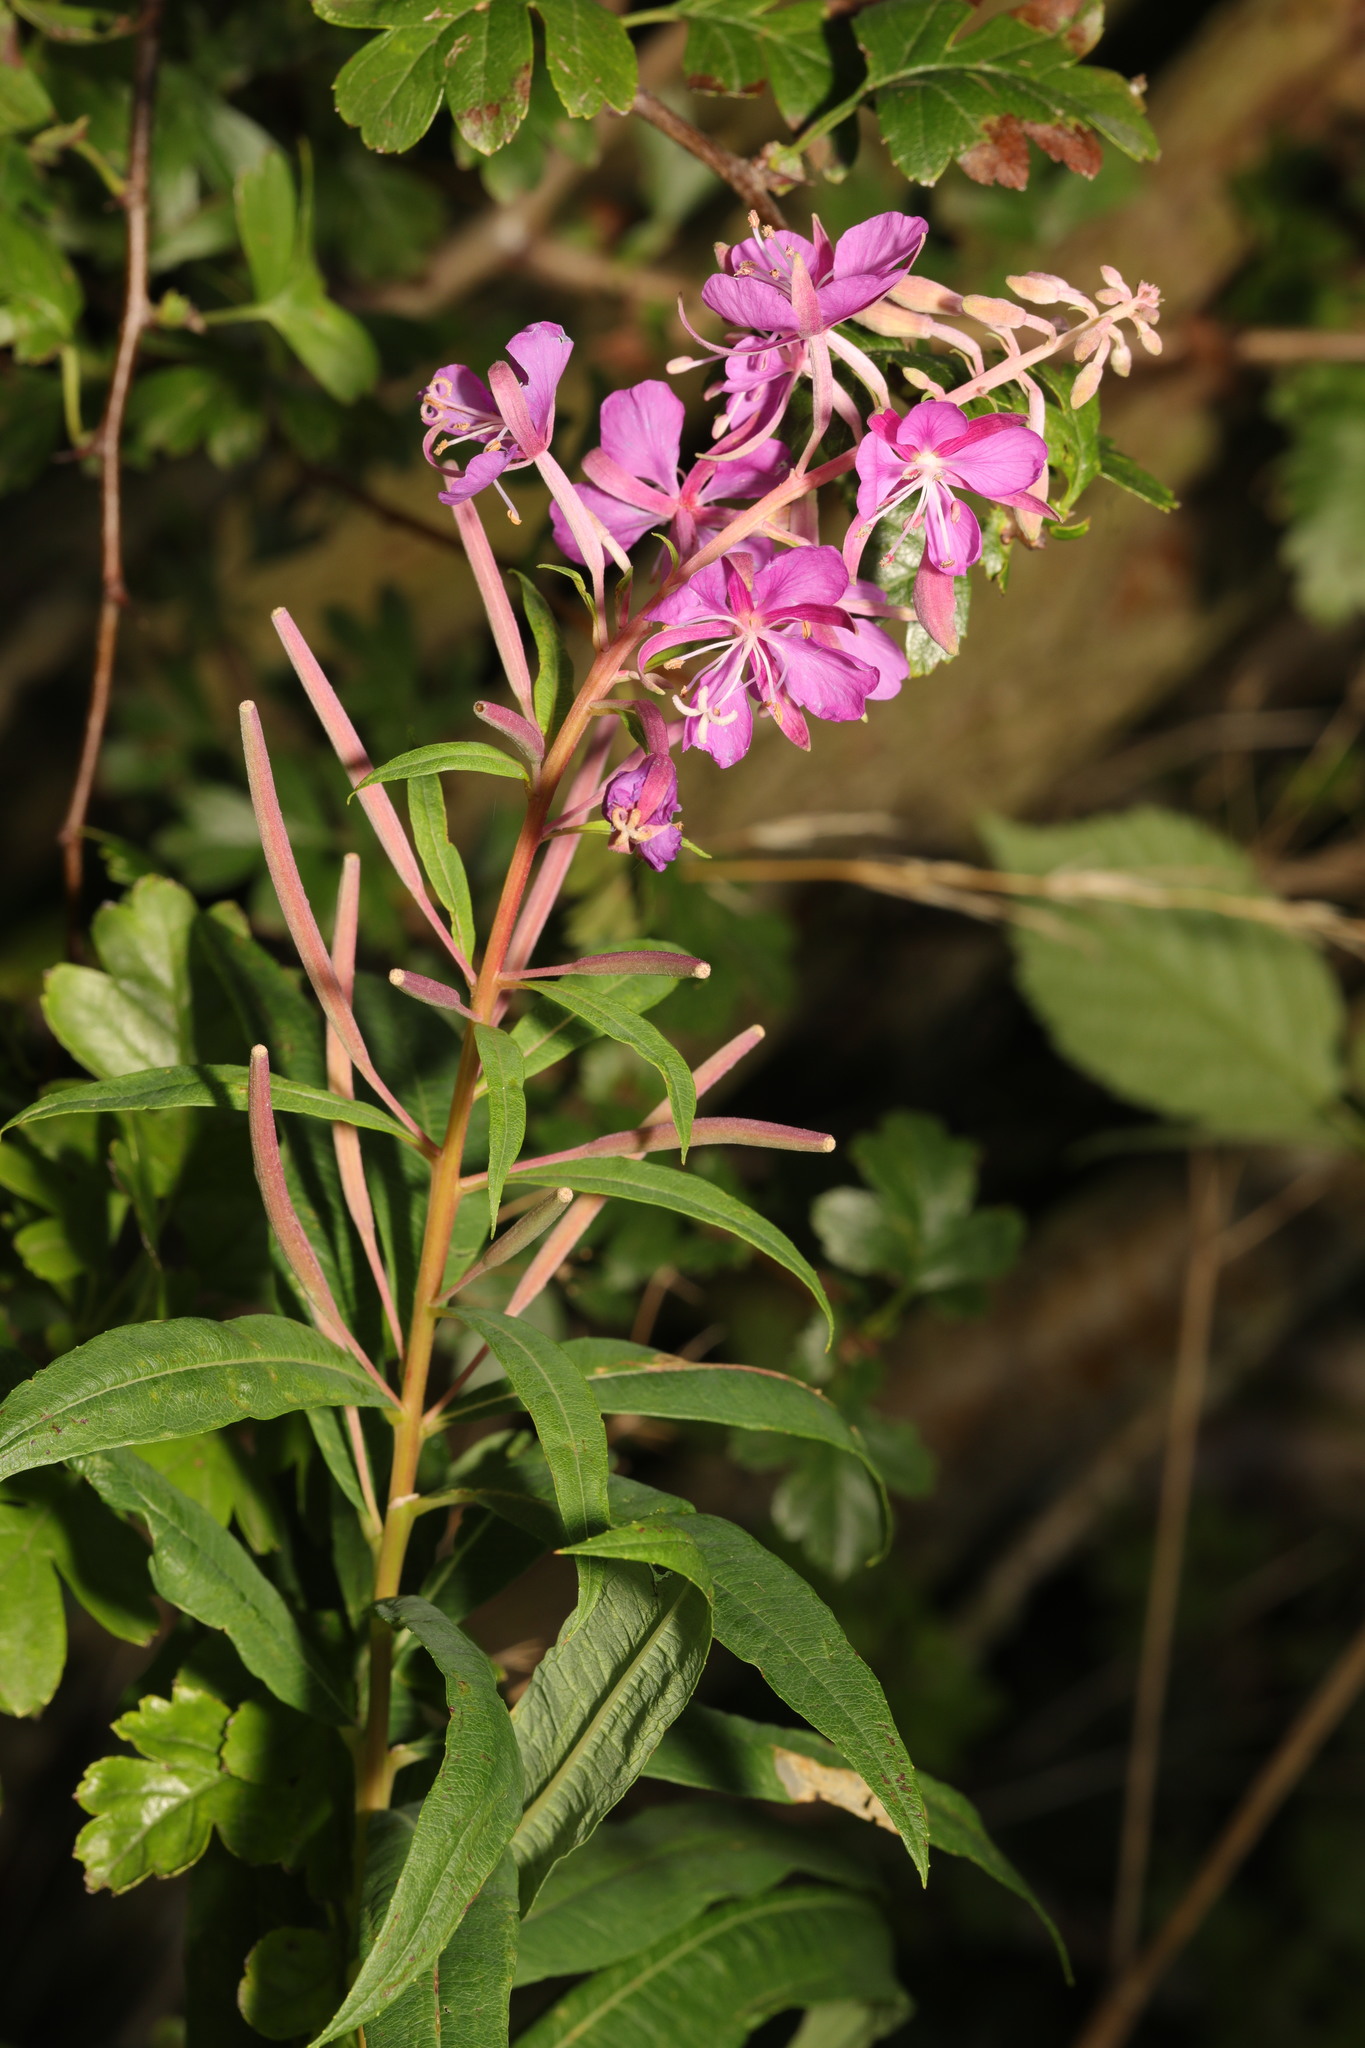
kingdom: Plantae
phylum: Tracheophyta
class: Magnoliopsida
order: Myrtales
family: Onagraceae
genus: Chamaenerion
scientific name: Chamaenerion angustifolium
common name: Fireweed
